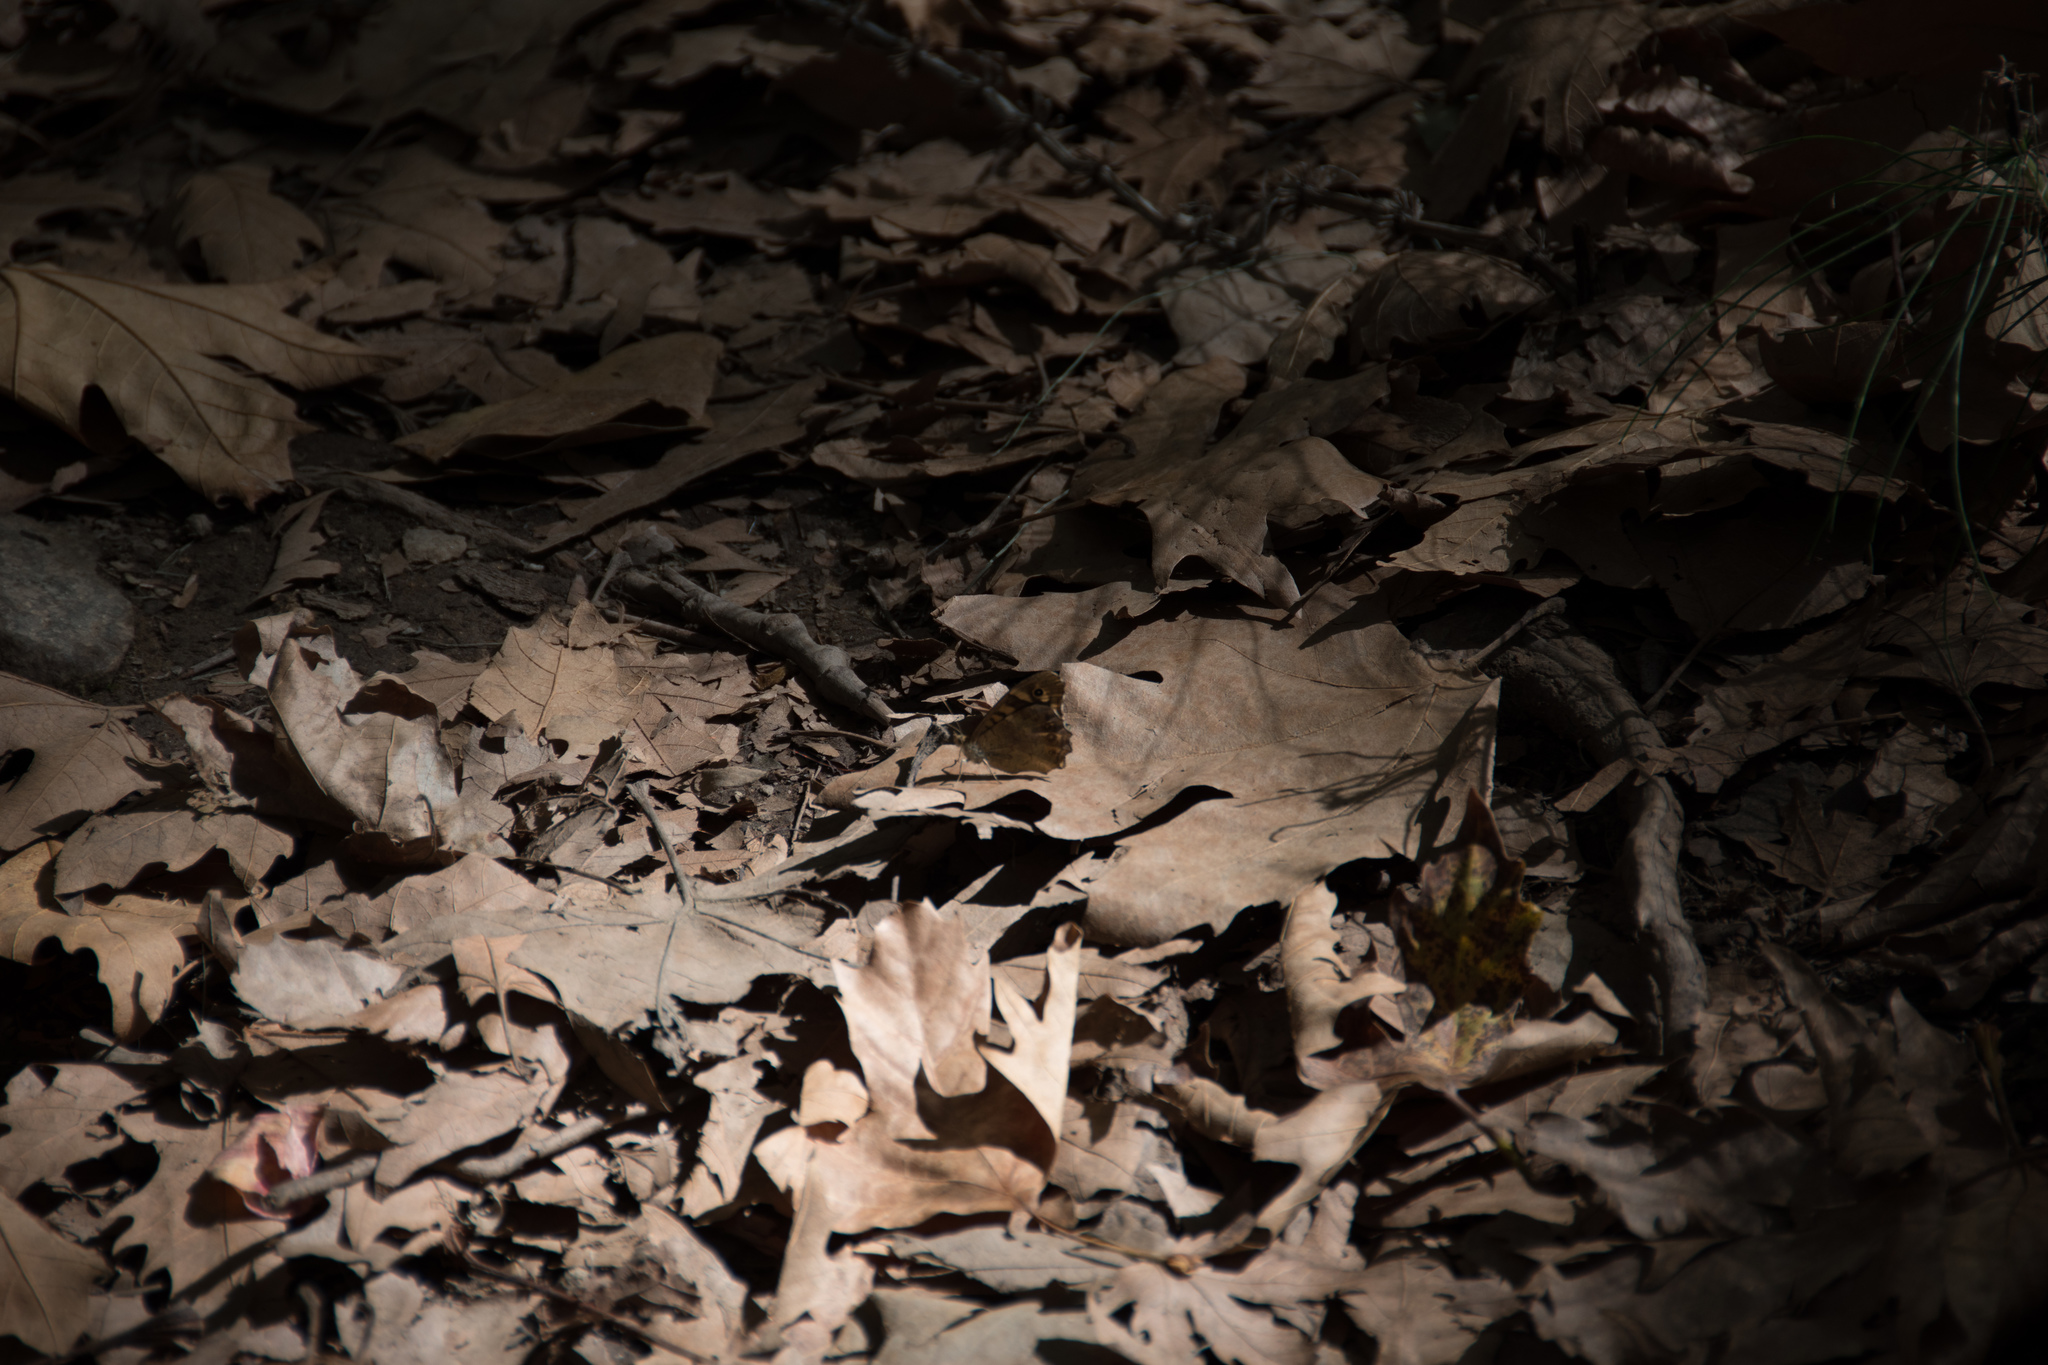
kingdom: Animalia
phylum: Arthropoda
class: Insecta
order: Lepidoptera
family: Nymphalidae
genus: Pararge
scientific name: Pararge aegeria
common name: Speckled wood
